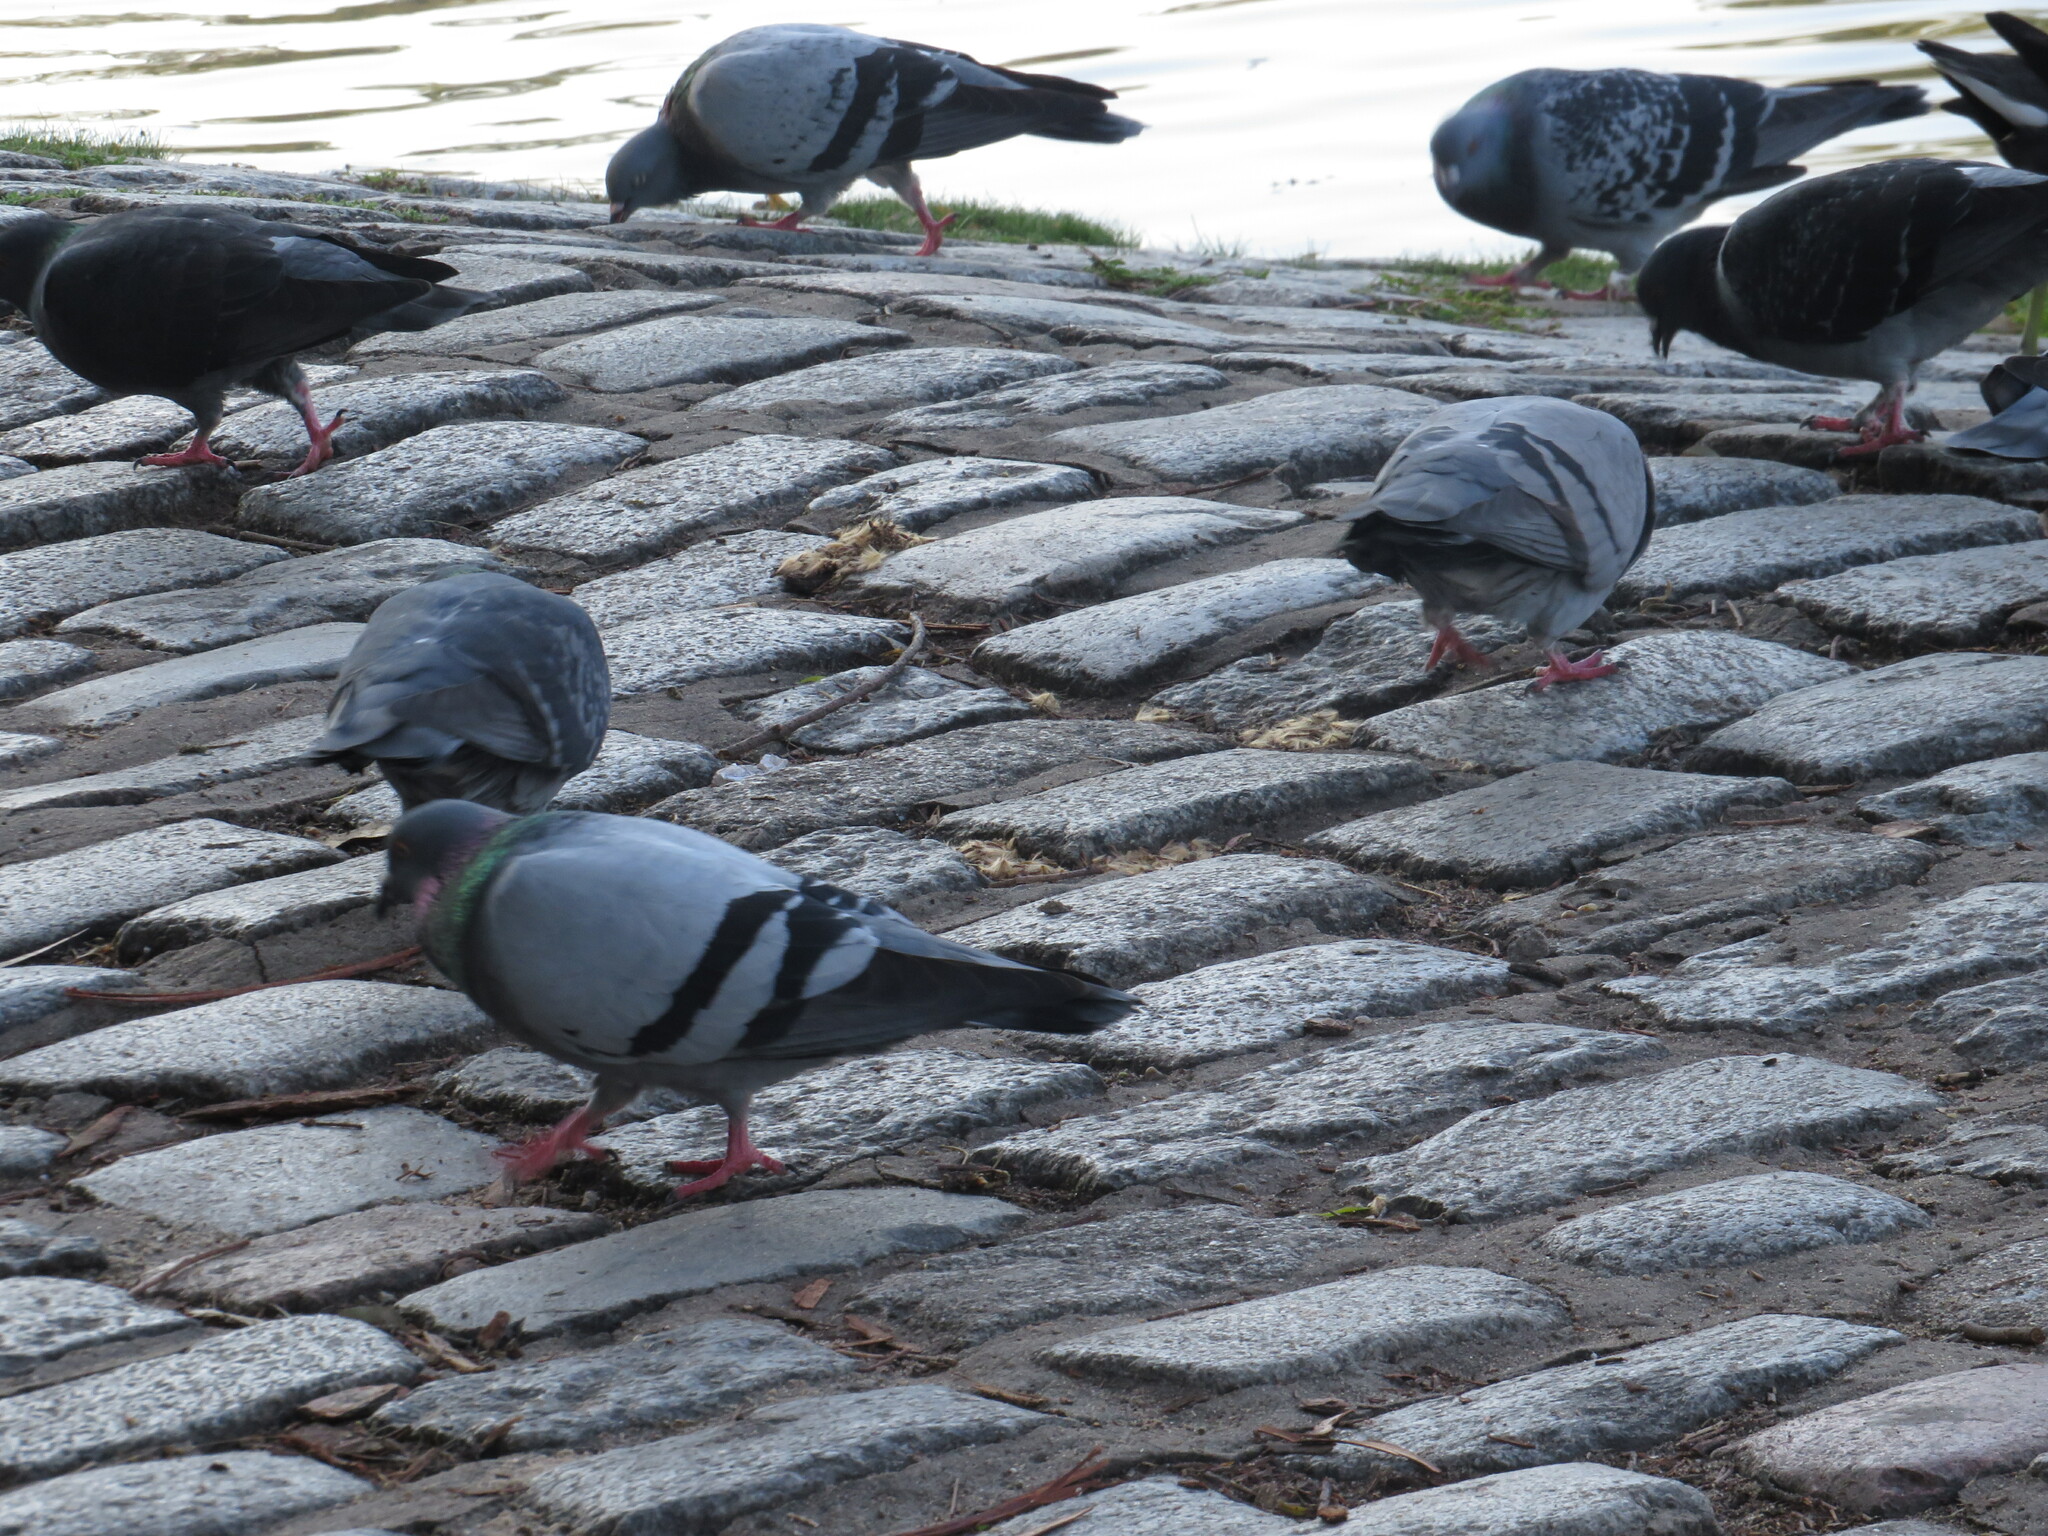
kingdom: Animalia
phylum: Chordata
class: Aves
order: Columbiformes
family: Columbidae
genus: Columba
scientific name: Columba livia
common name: Rock pigeon
